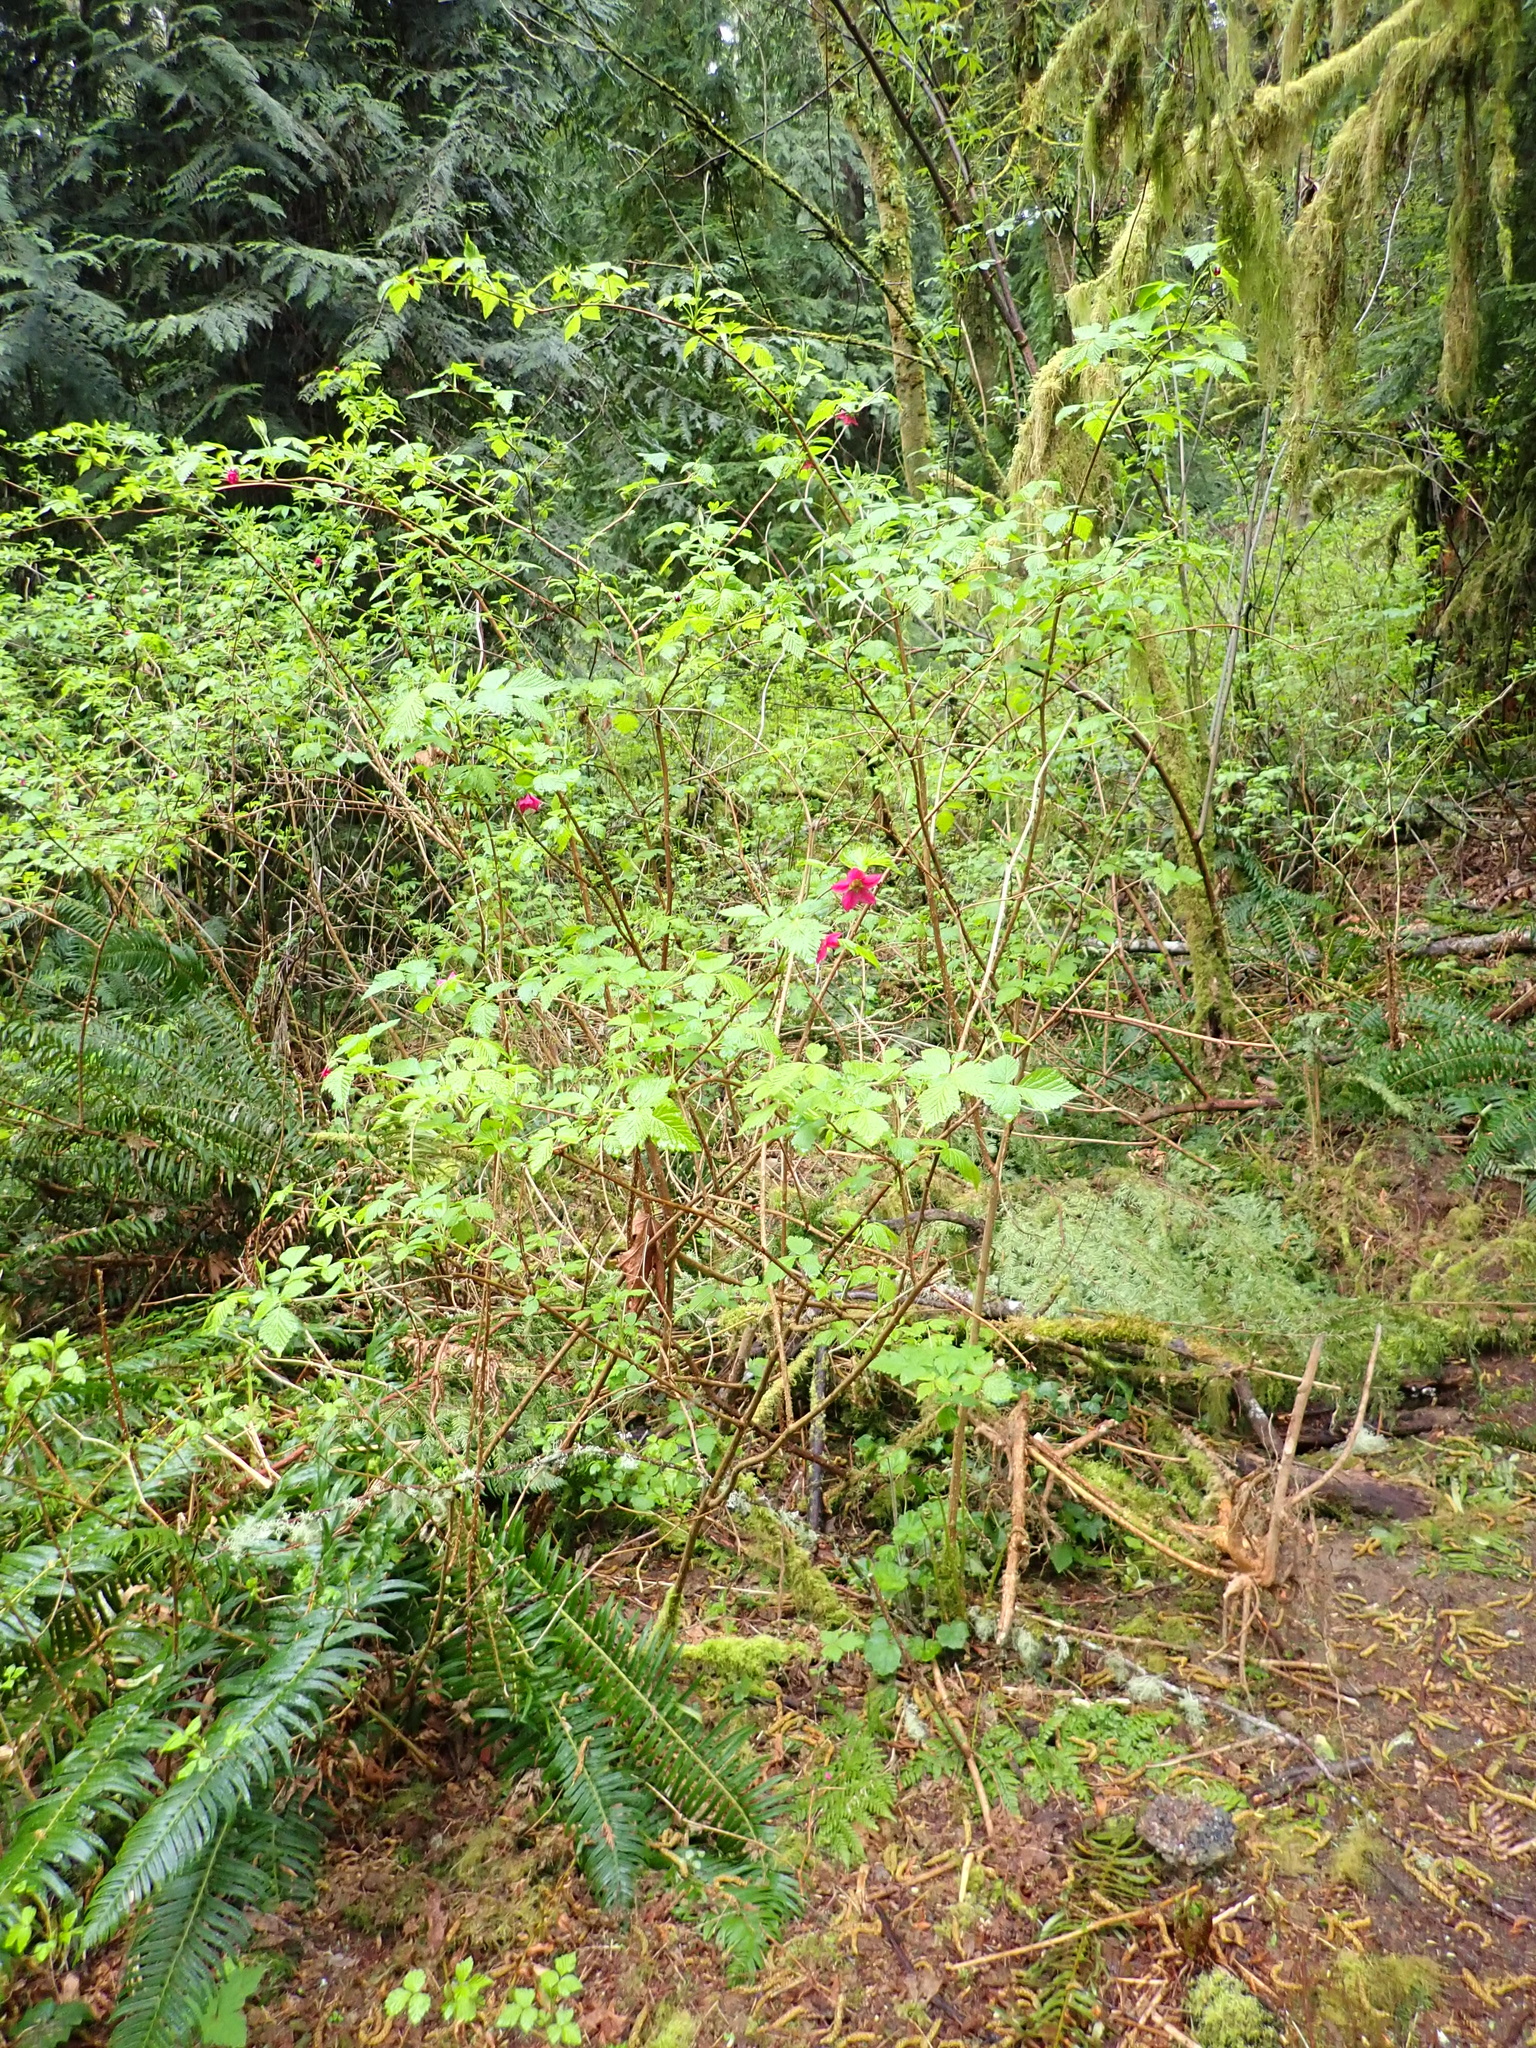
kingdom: Plantae
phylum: Tracheophyta
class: Magnoliopsida
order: Rosales
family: Rosaceae
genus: Rubus
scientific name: Rubus spectabilis
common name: Salmonberry
